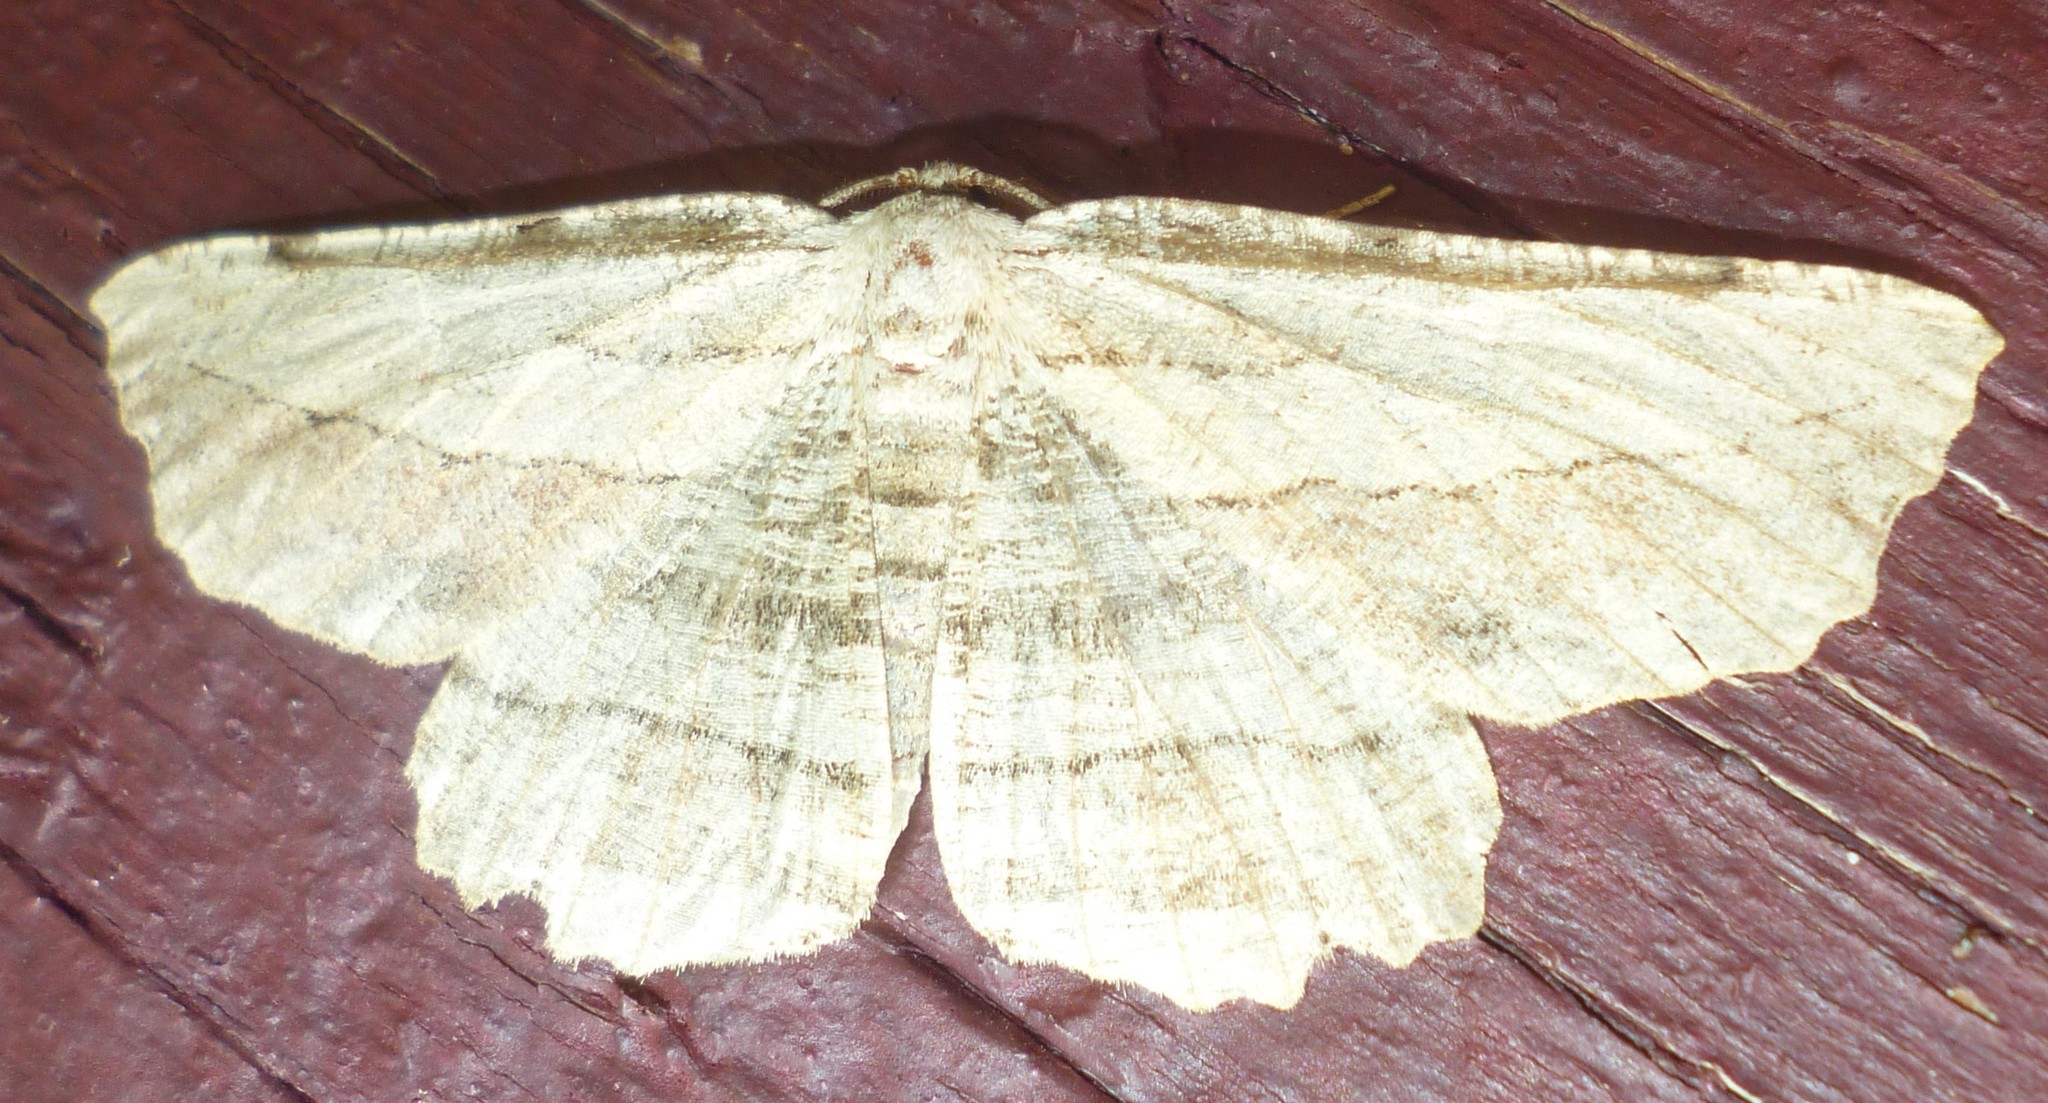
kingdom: Animalia
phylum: Arthropoda
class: Insecta
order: Lepidoptera
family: Geometridae
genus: Lytrosis
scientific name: Lytrosis unitaria
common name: Common lytrosis
